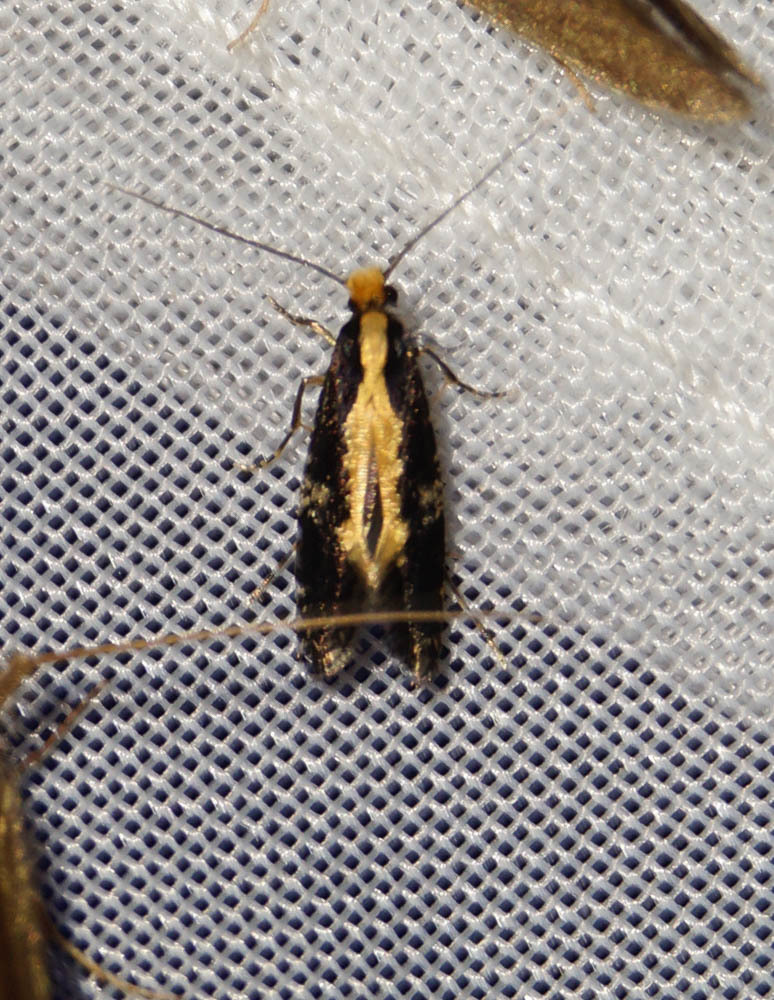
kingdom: Animalia
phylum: Arthropoda
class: Insecta
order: Lepidoptera
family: Tineidae
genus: Monopis
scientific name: Monopis obviella
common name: Tineid moth
